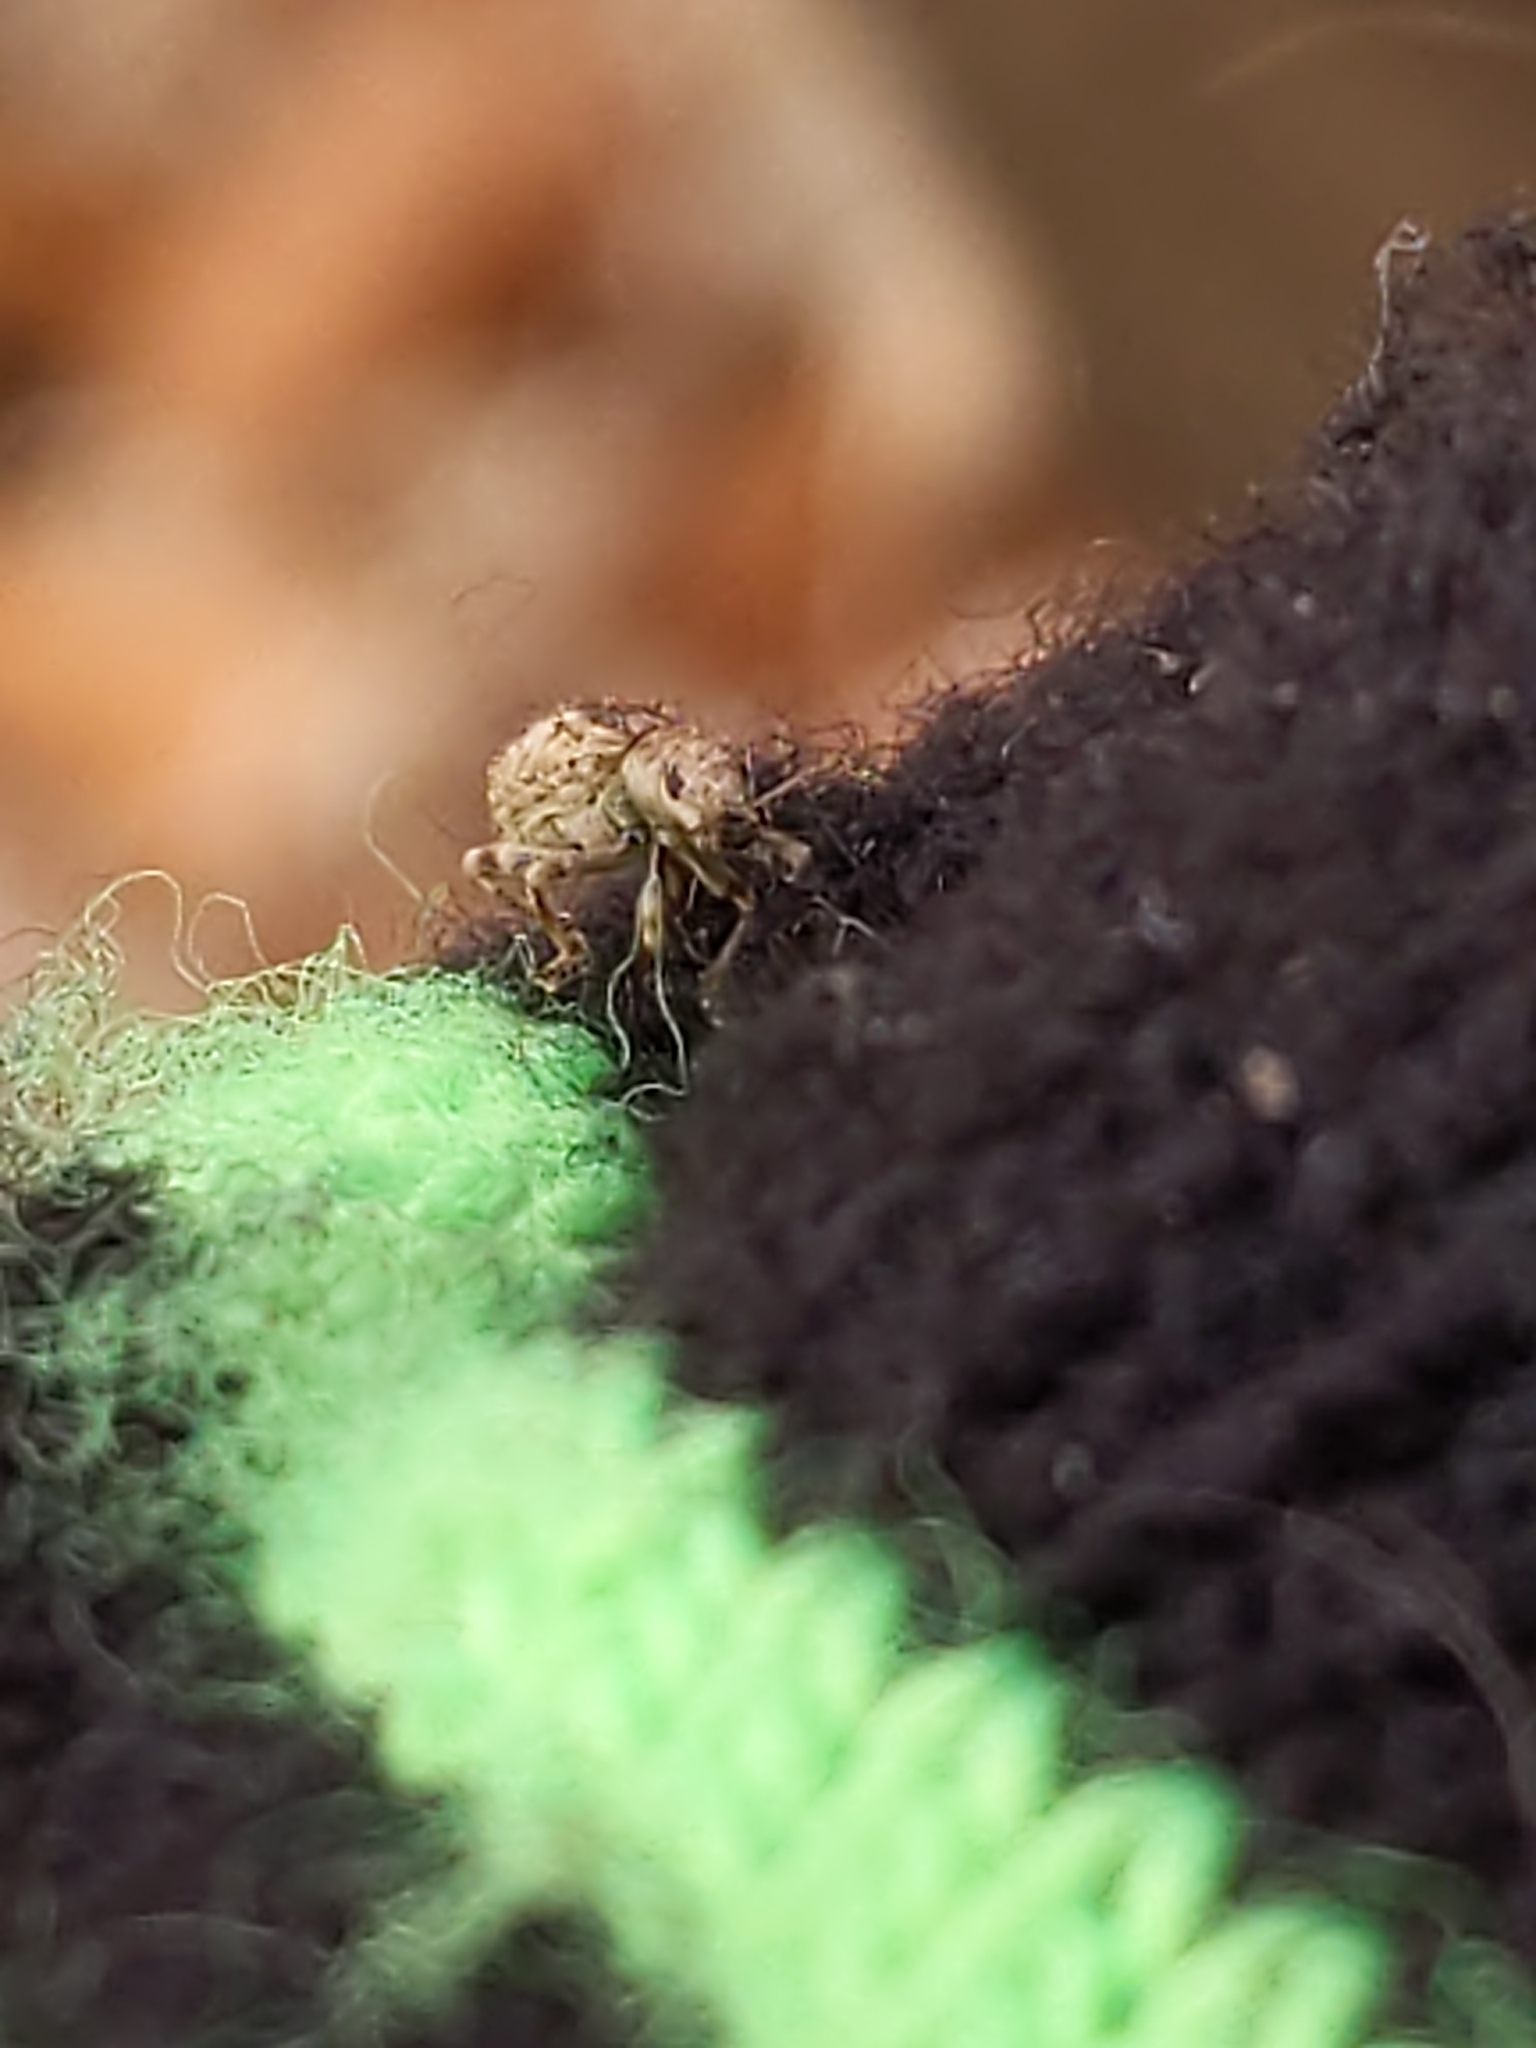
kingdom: Animalia
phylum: Arthropoda
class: Insecta
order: Coleoptera
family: Curculionidae
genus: Pseudoedophrys
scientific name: Pseudoedophrys hilleri
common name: Weevil
